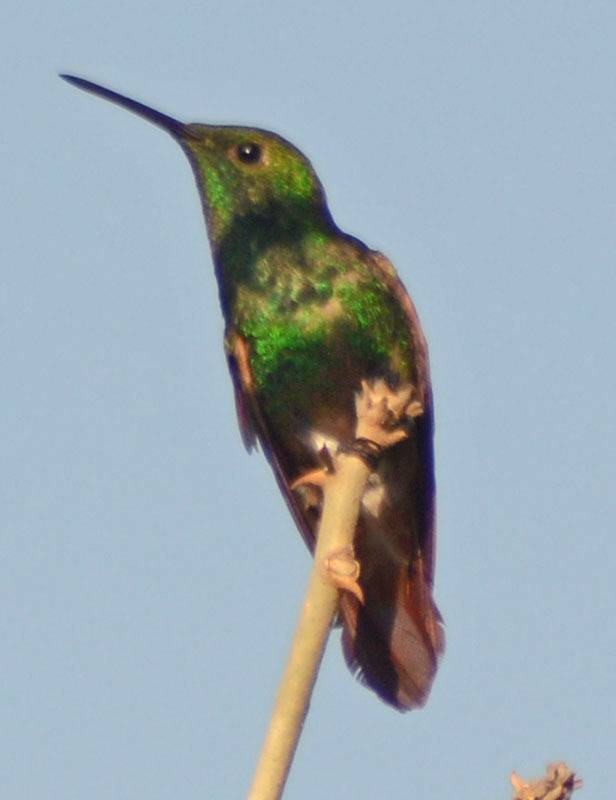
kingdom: Animalia
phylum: Chordata
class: Aves
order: Apodiformes
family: Trochilidae
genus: Saucerottia
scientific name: Saucerottia beryllina
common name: Berylline hummingbird
